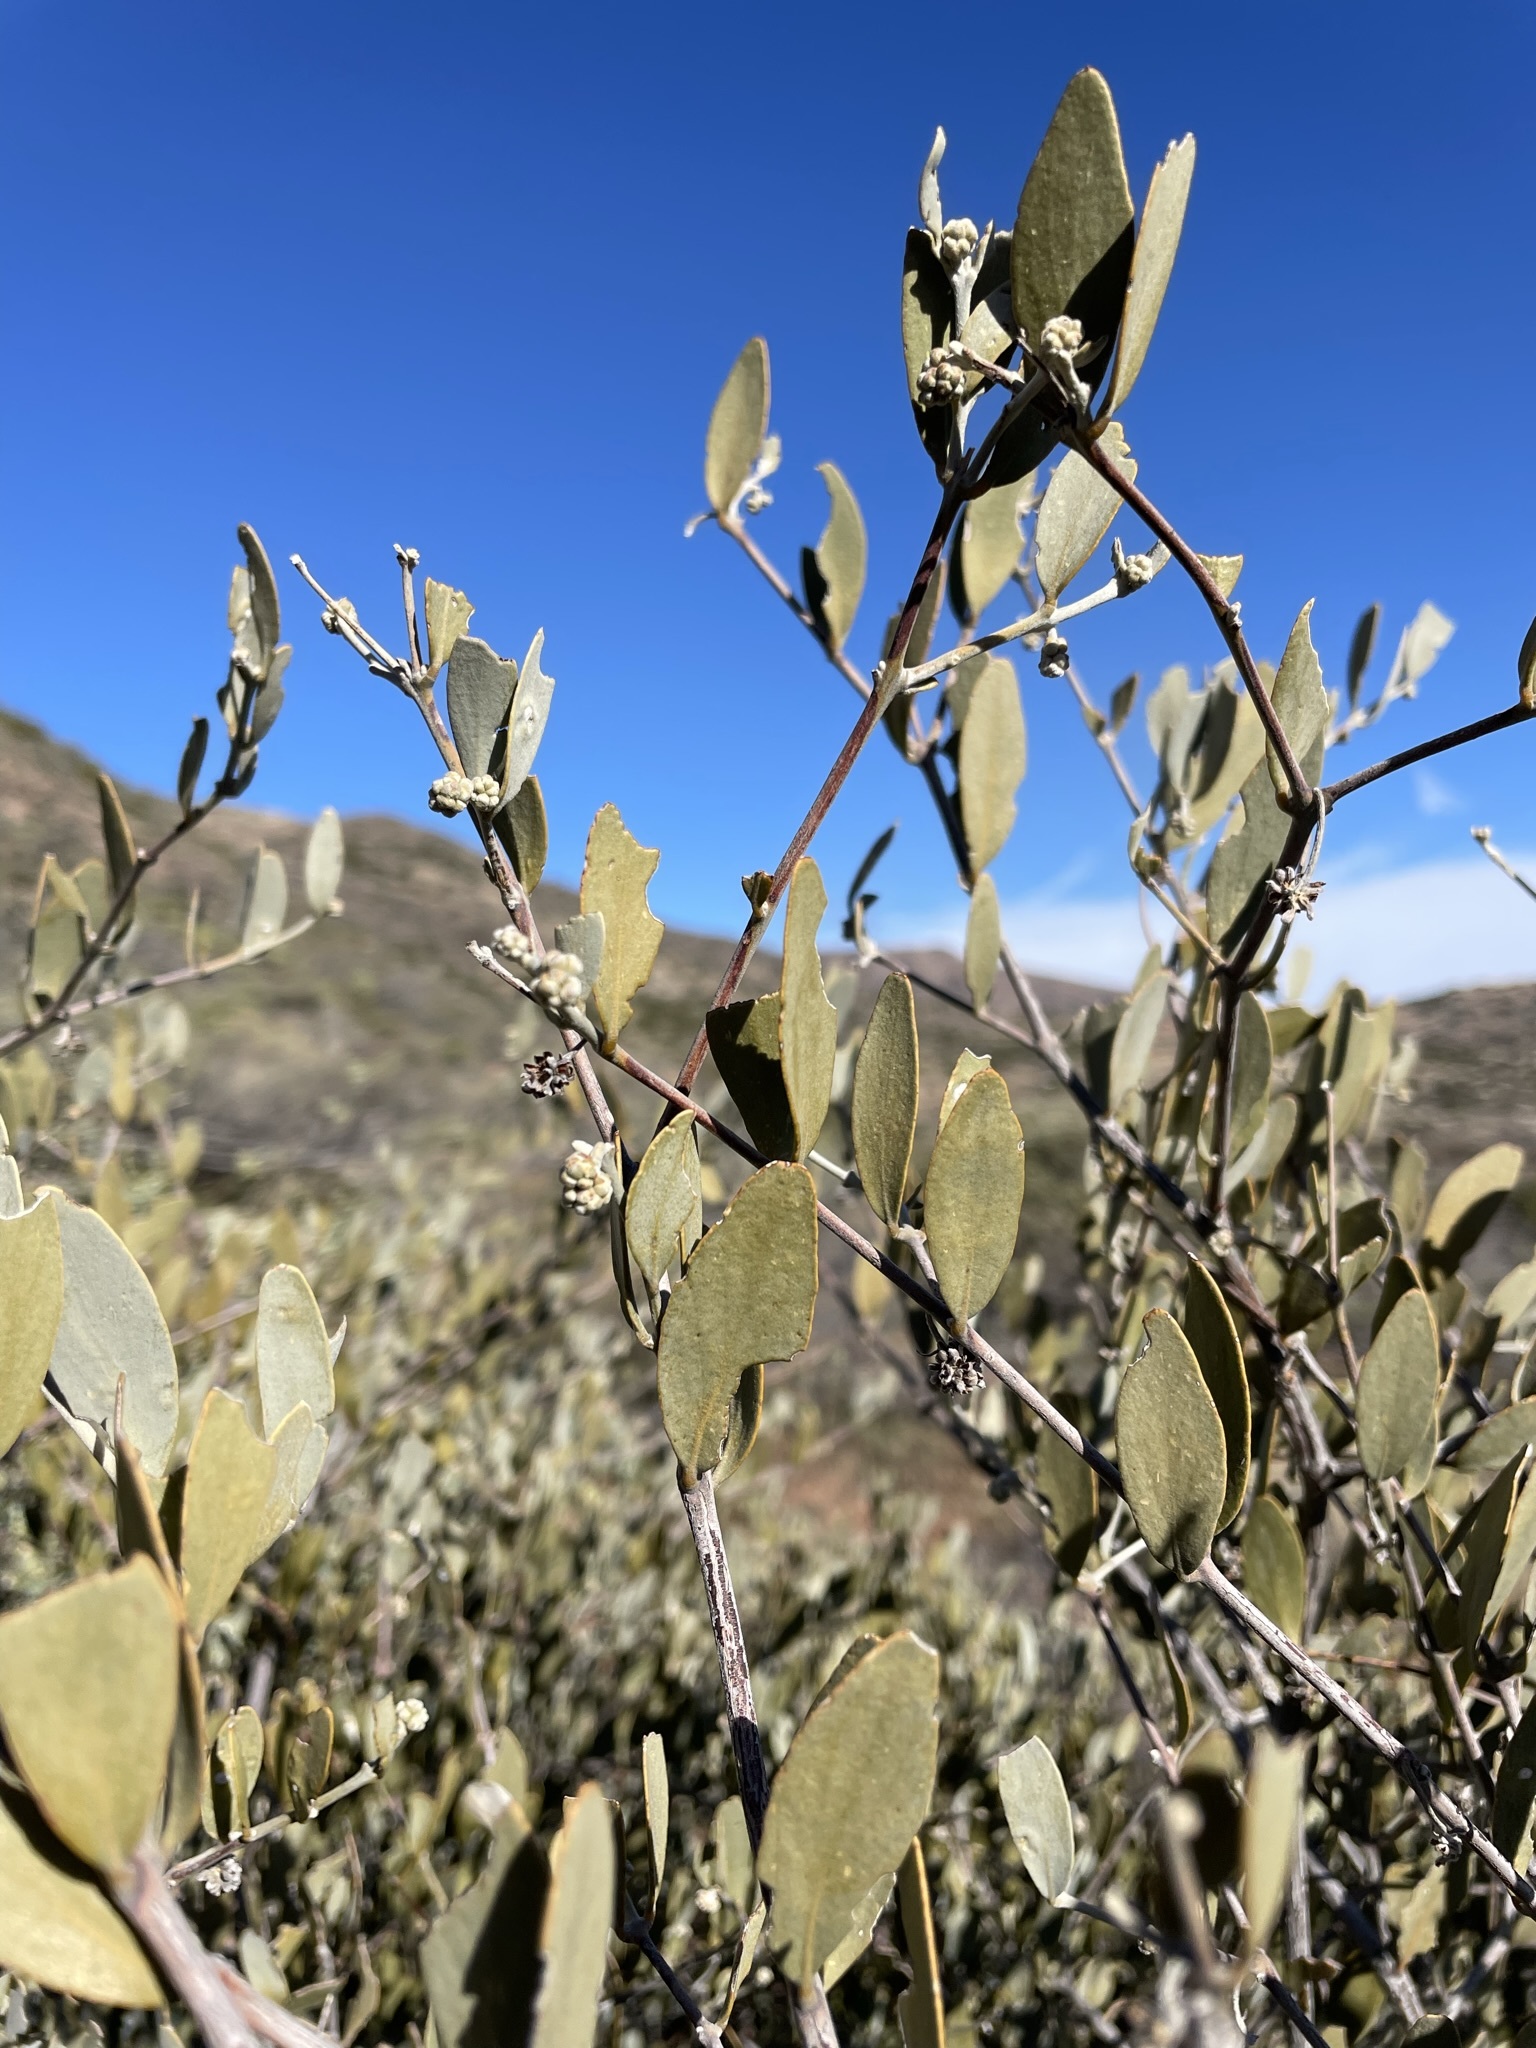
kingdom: Plantae
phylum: Tracheophyta
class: Magnoliopsida
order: Caryophyllales
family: Simmondsiaceae
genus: Simmondsia
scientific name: Simmondsia chinensis
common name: Jojoba
